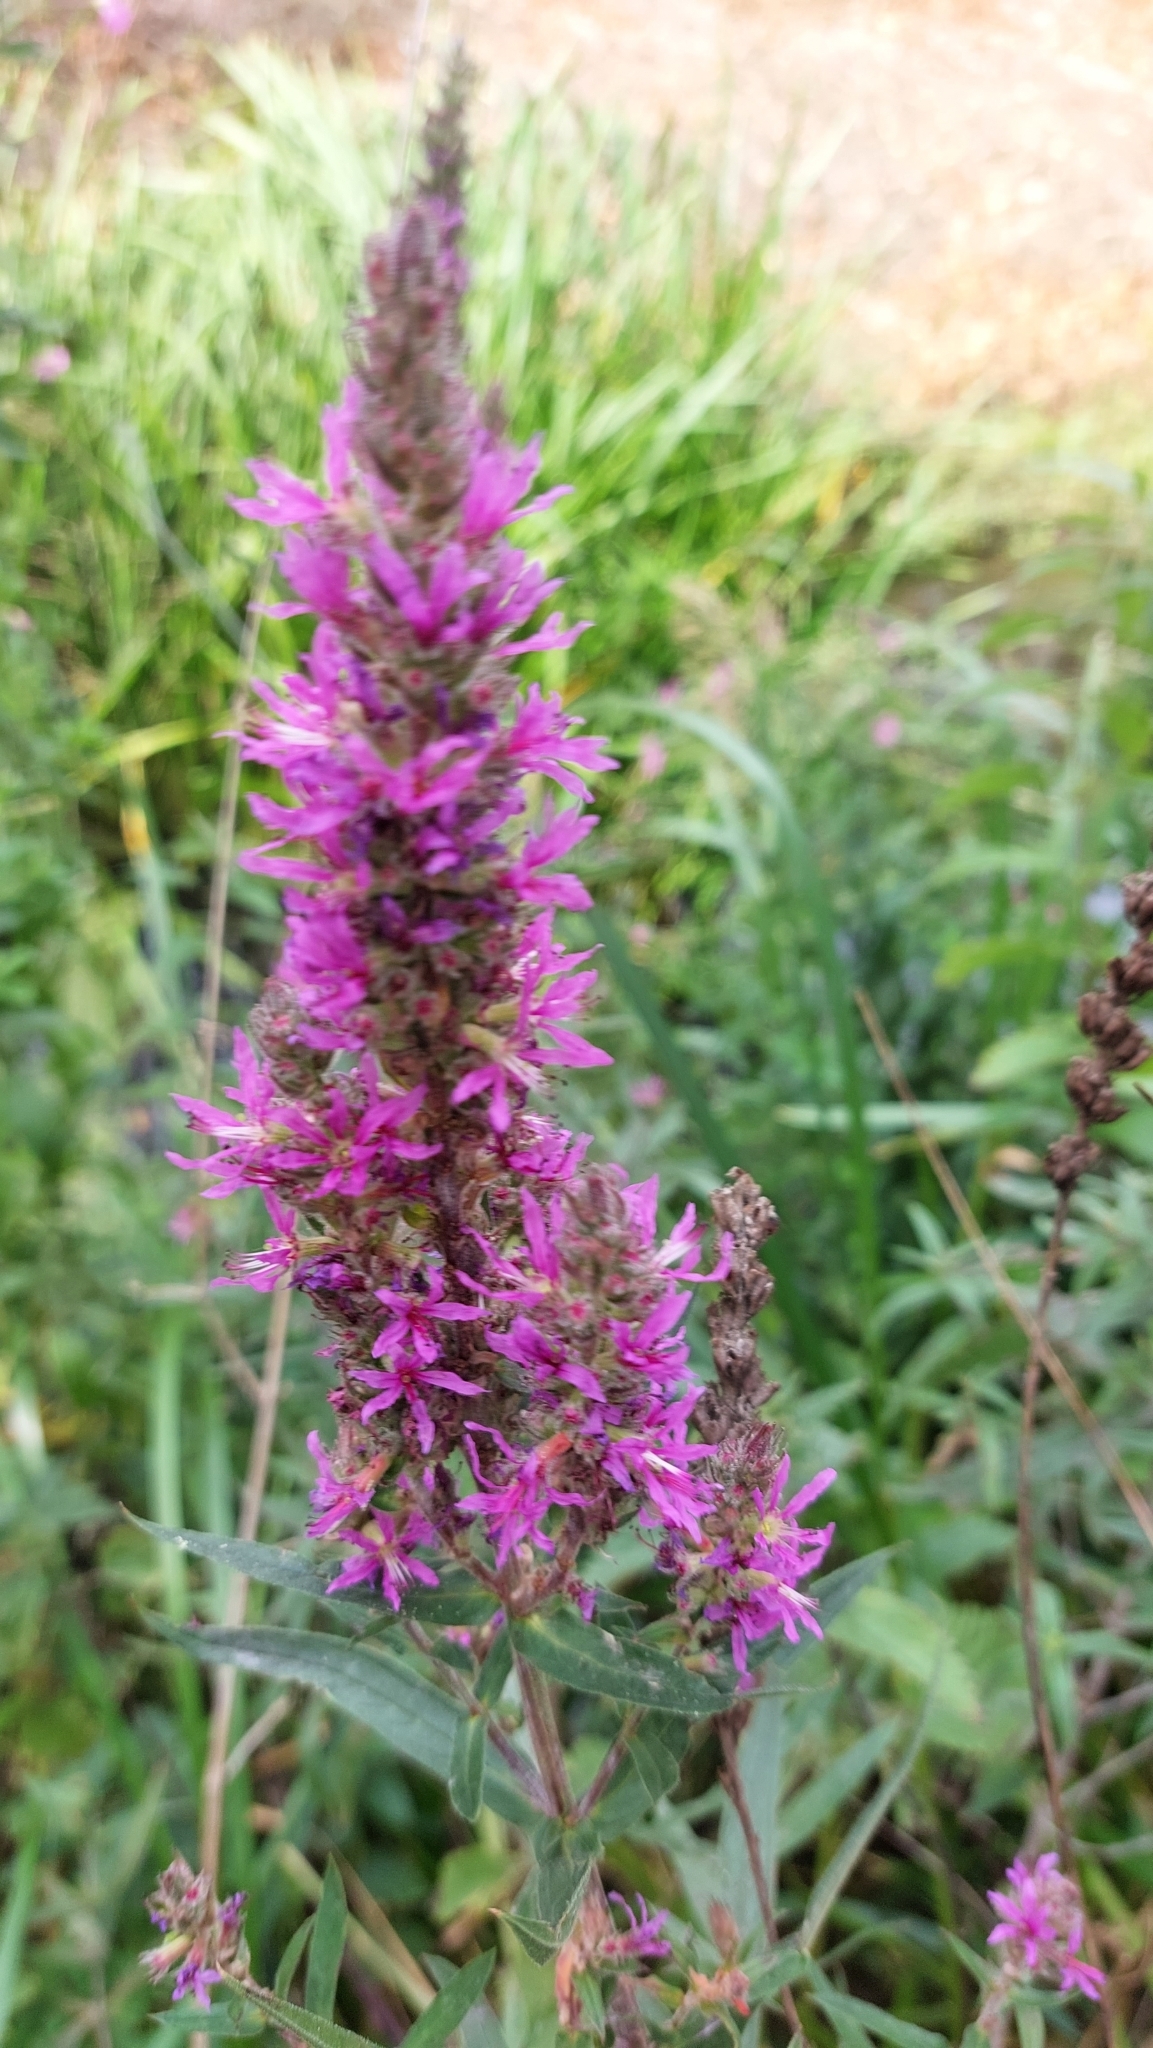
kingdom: Plantae
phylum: Tracheophyta
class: Magnoliopsida
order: Myrtales
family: Lythraceae
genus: Lythrum
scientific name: Lythrum salicaria
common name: Purple loosestrife
